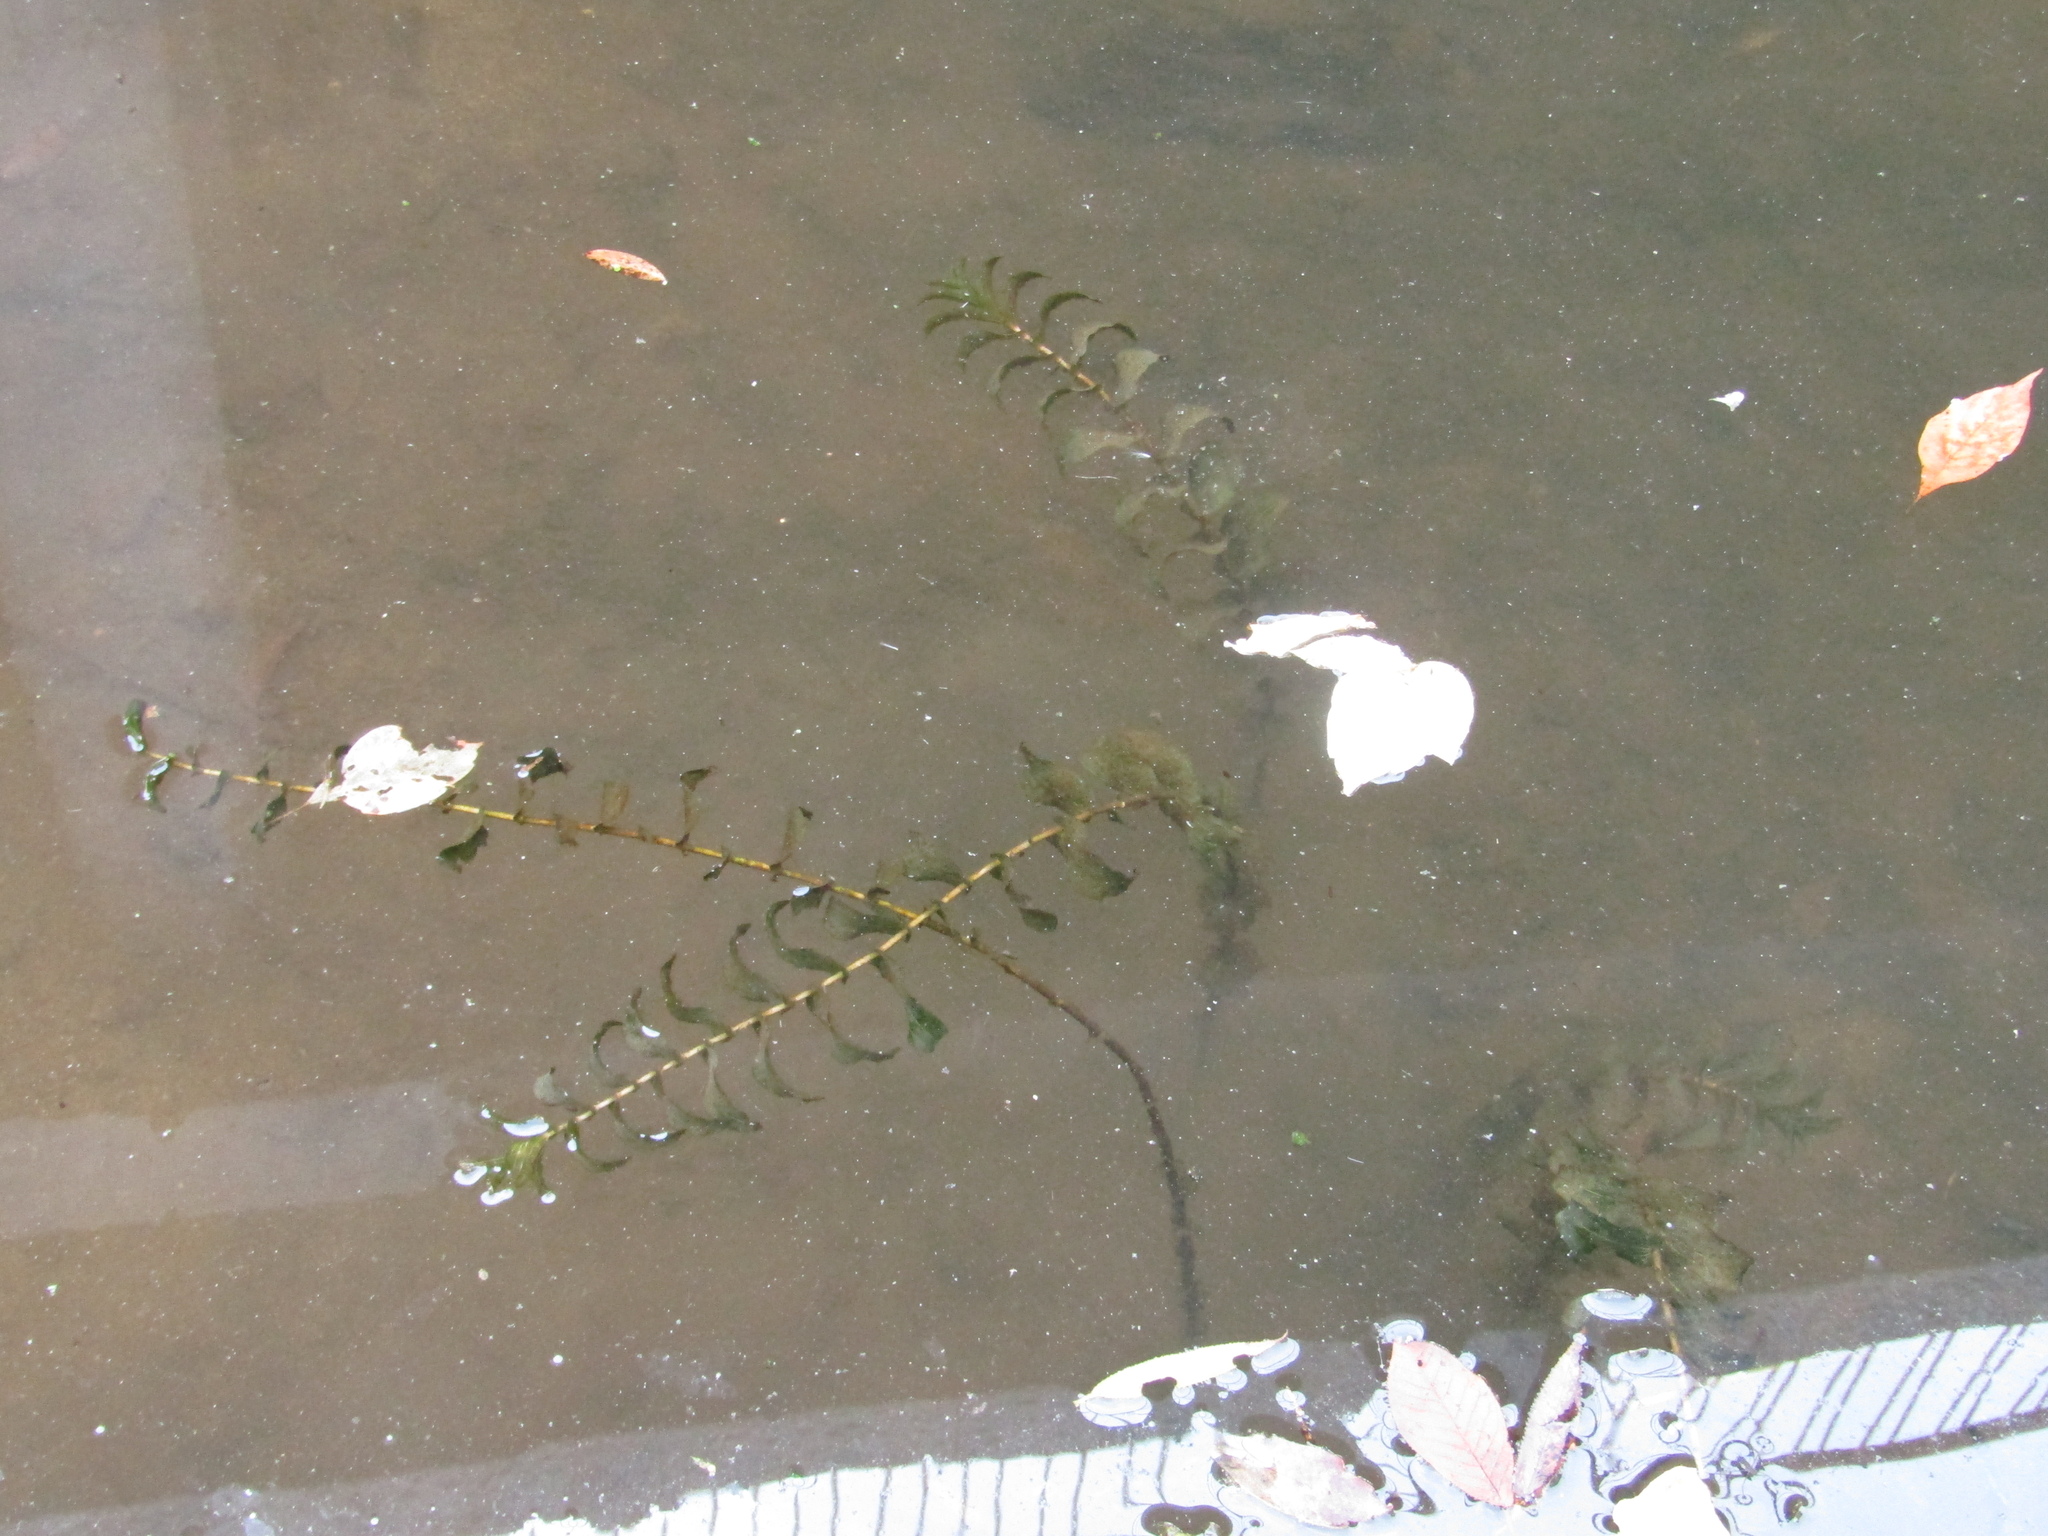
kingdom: Plantae
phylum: Tracheophyta
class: Liliopsida
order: Alismatales
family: Potamogetonaceae
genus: Potamogeton
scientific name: Potamogeton perfoliatus
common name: Perfoliate pondweed
